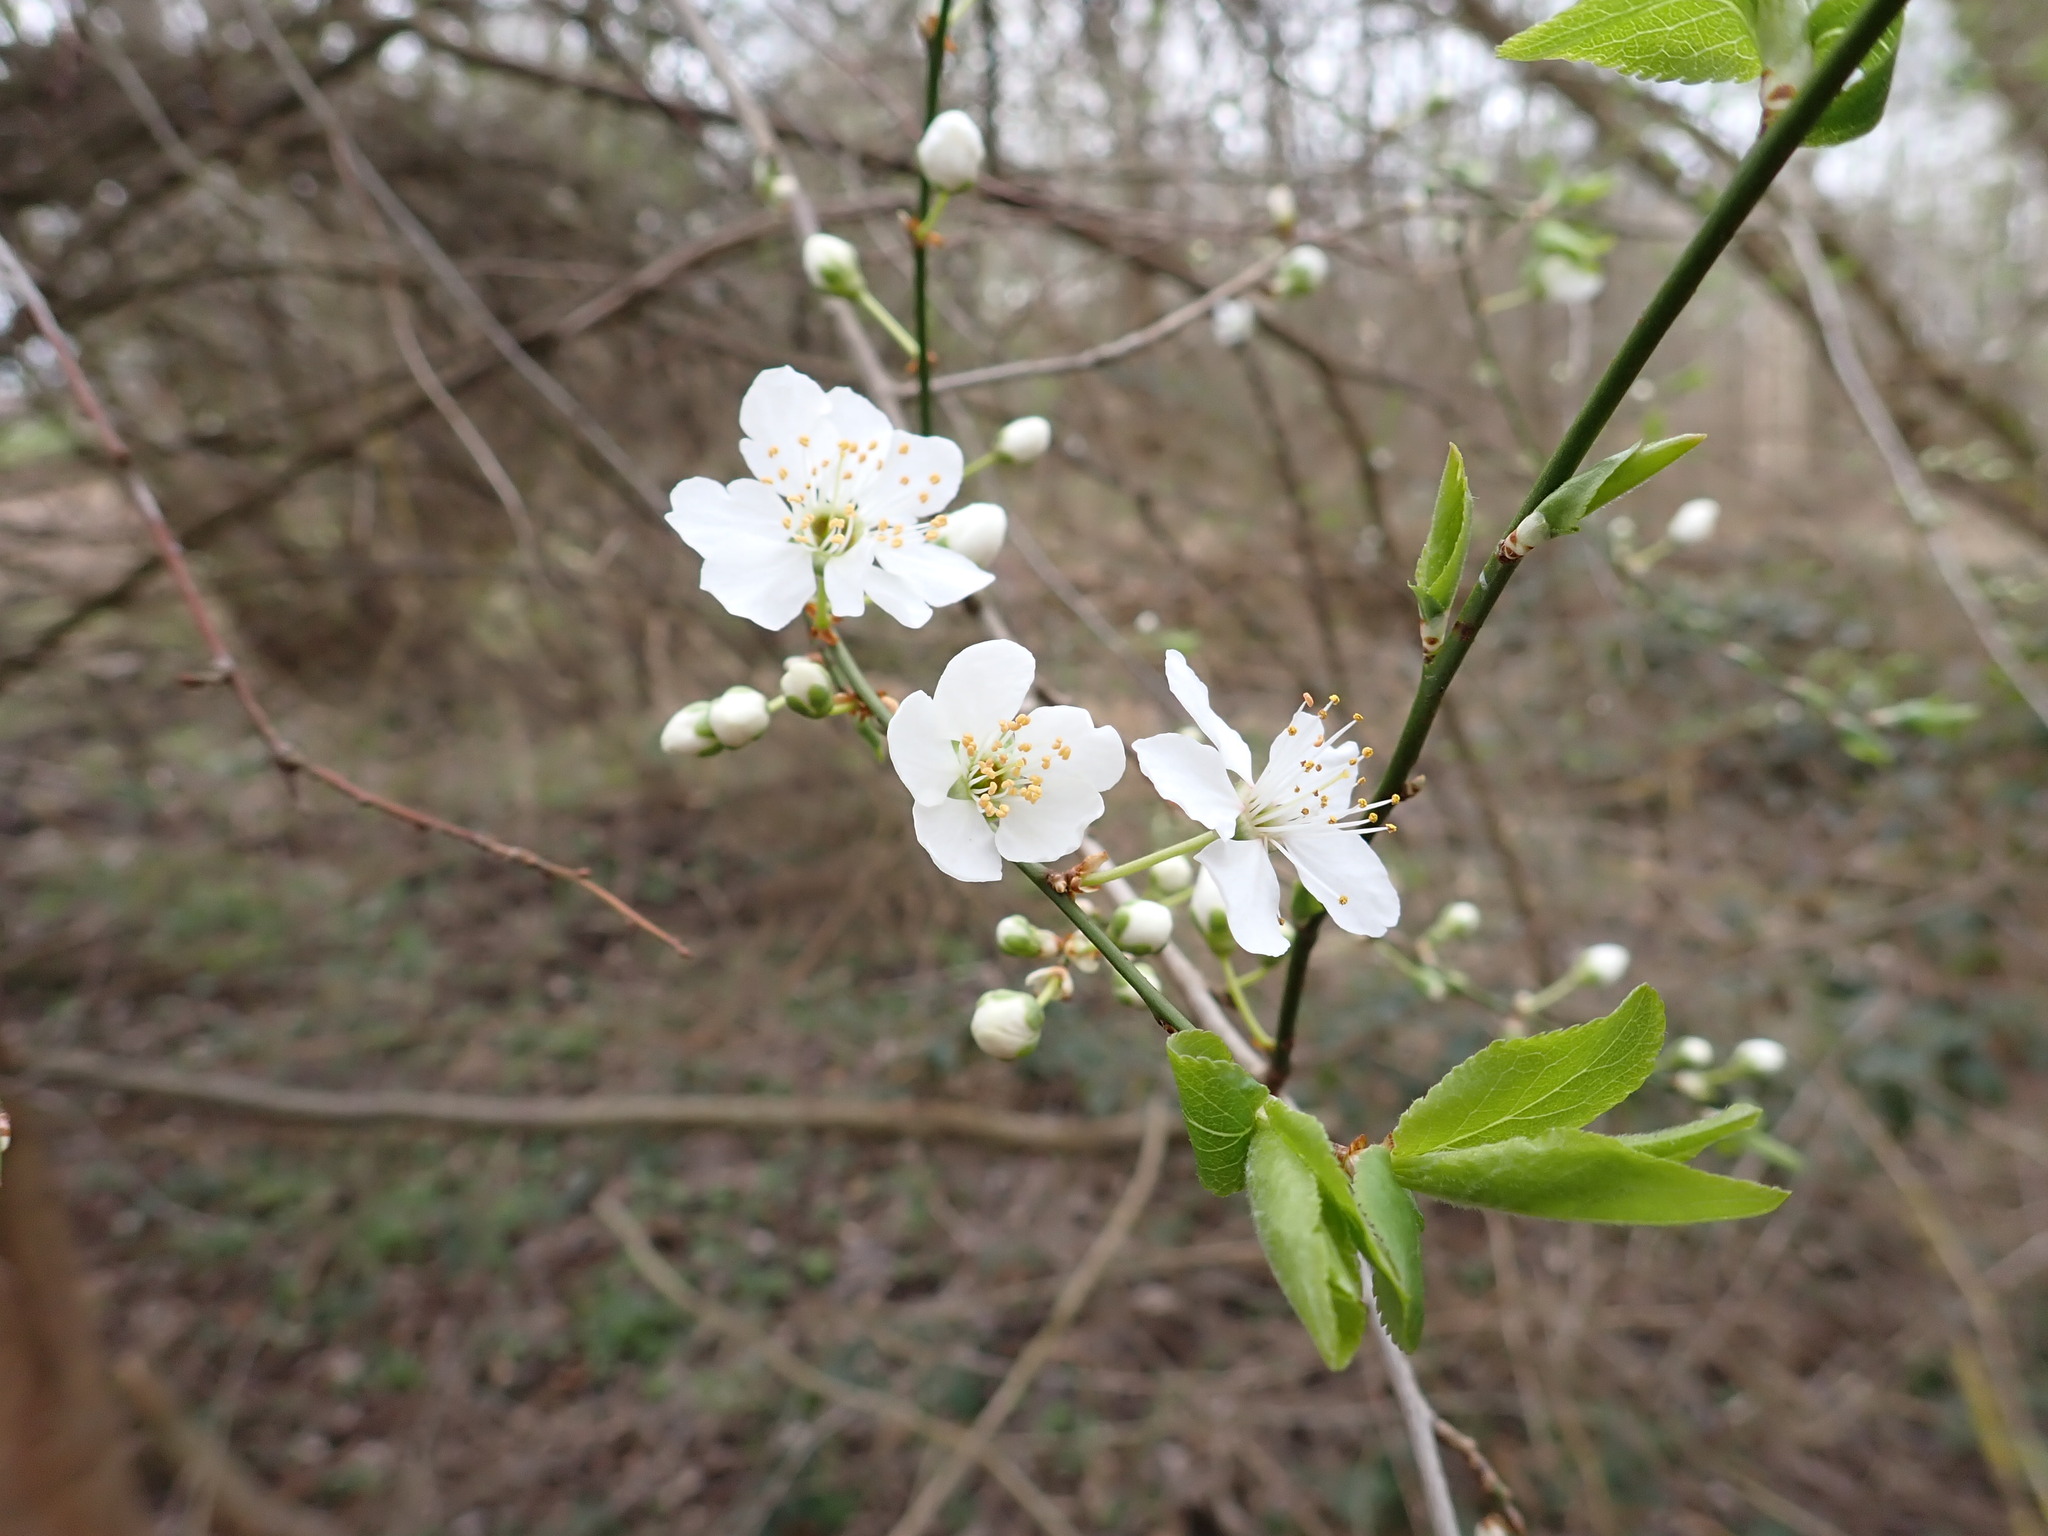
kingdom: Plantae
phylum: Tracheophyta
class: Magnoliopsida
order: Rosales
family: Rosaceae
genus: Prunus
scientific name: Prunus cerasifera
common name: Cherry plum
